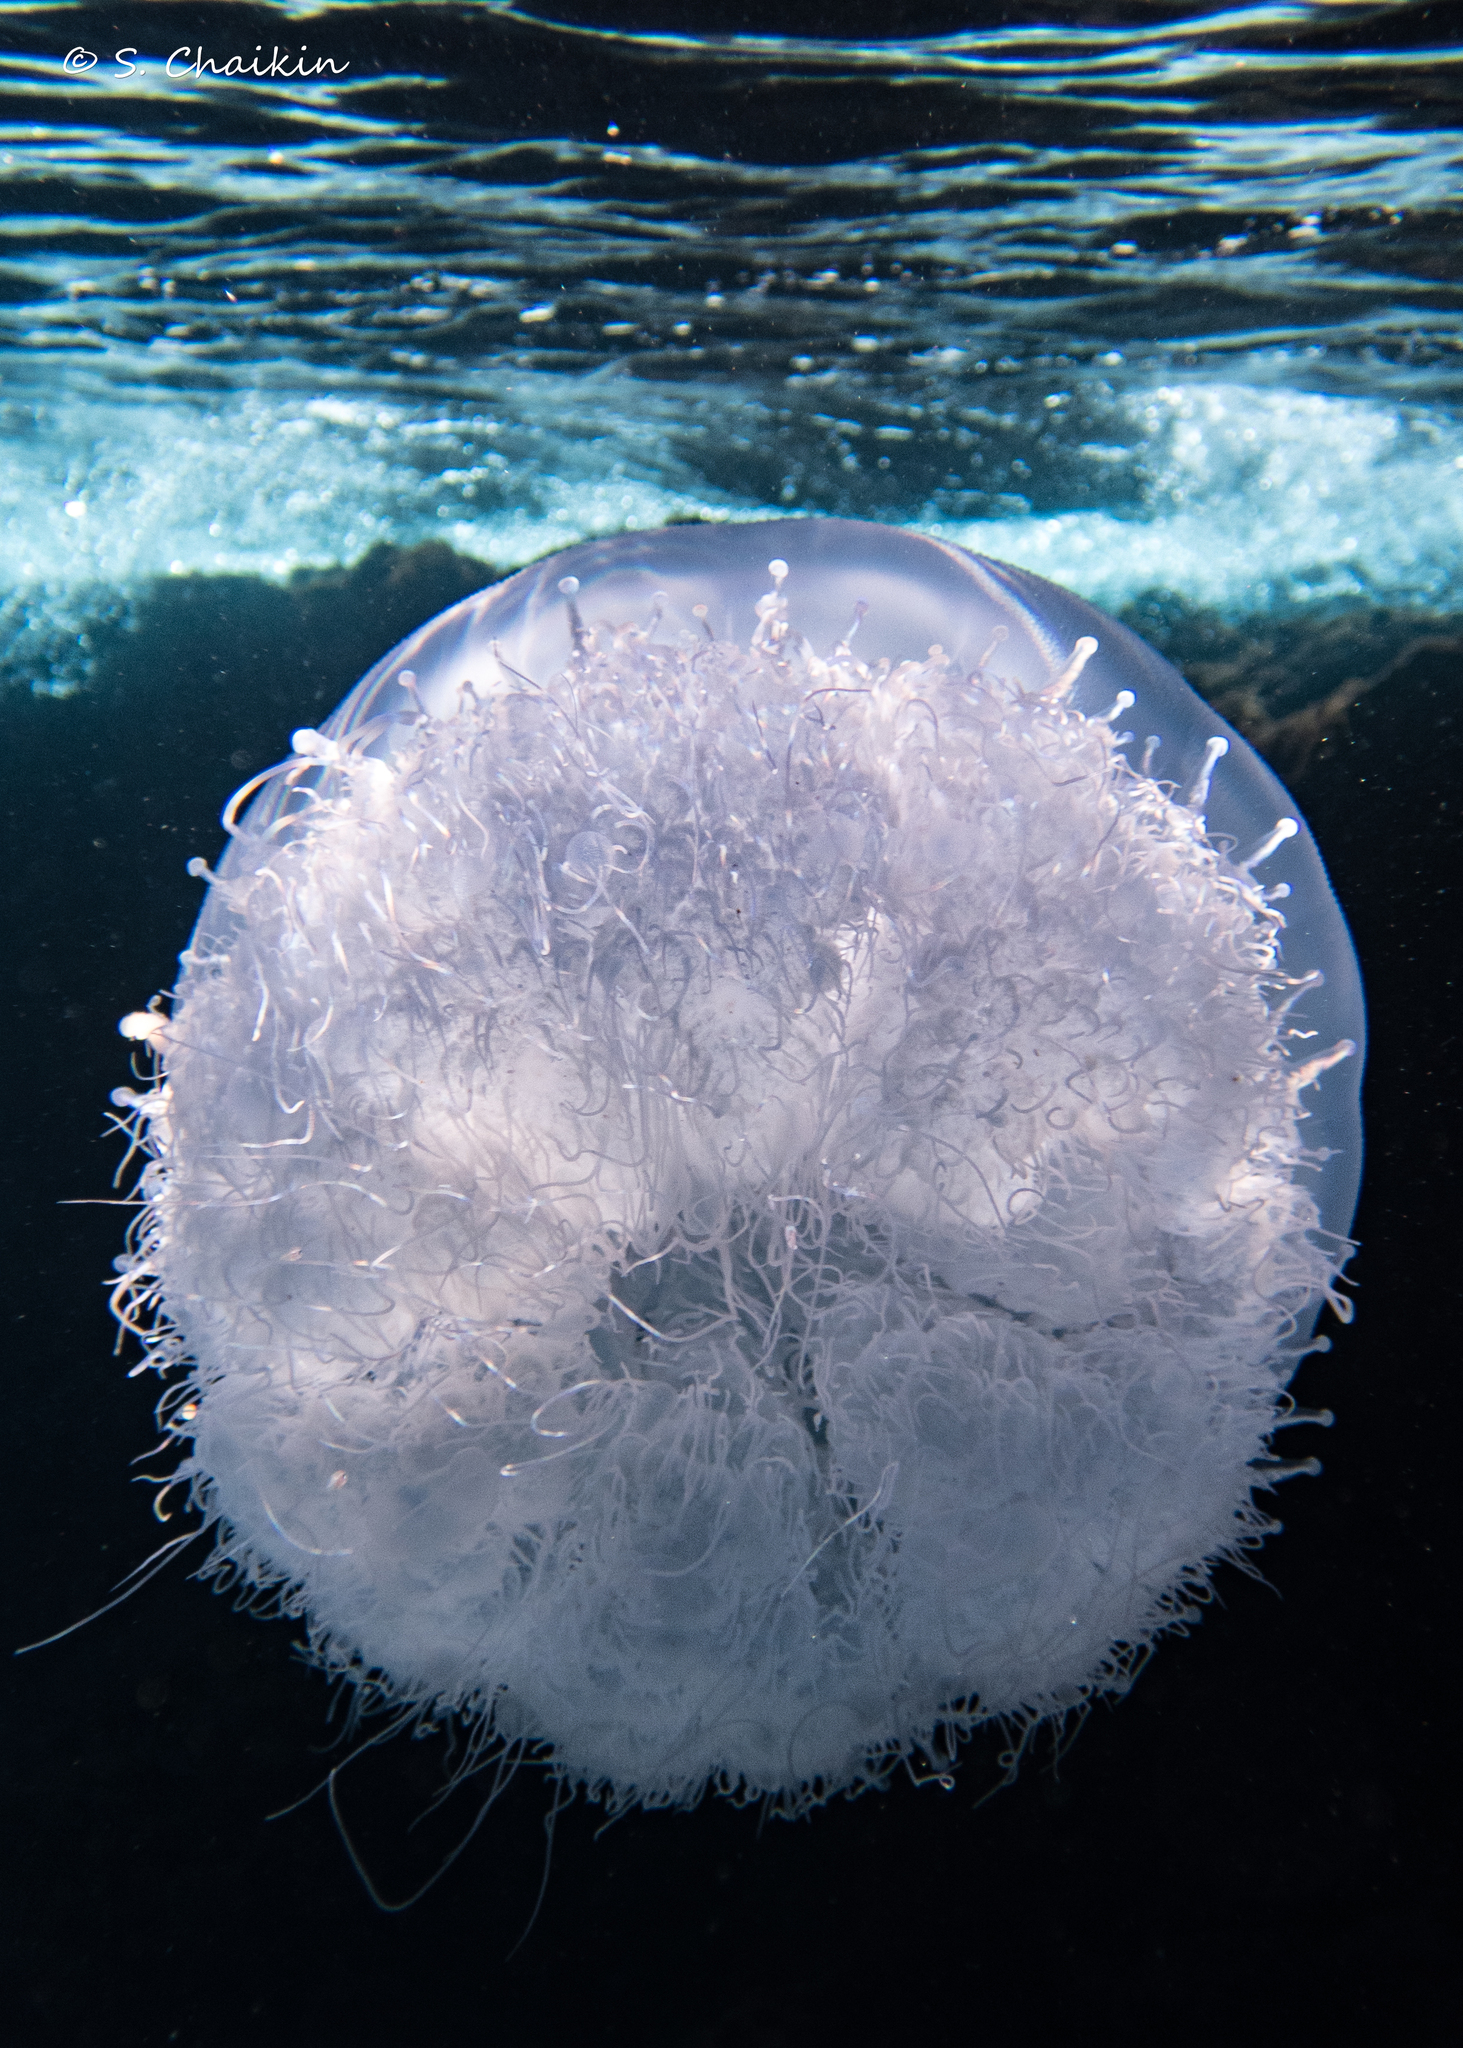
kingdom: Animalia
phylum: Cnidaria
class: Scyphozoa
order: Rhizostomeae
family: Rhizostomatidae
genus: Rhopilema
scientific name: Rhopilema nomadica
